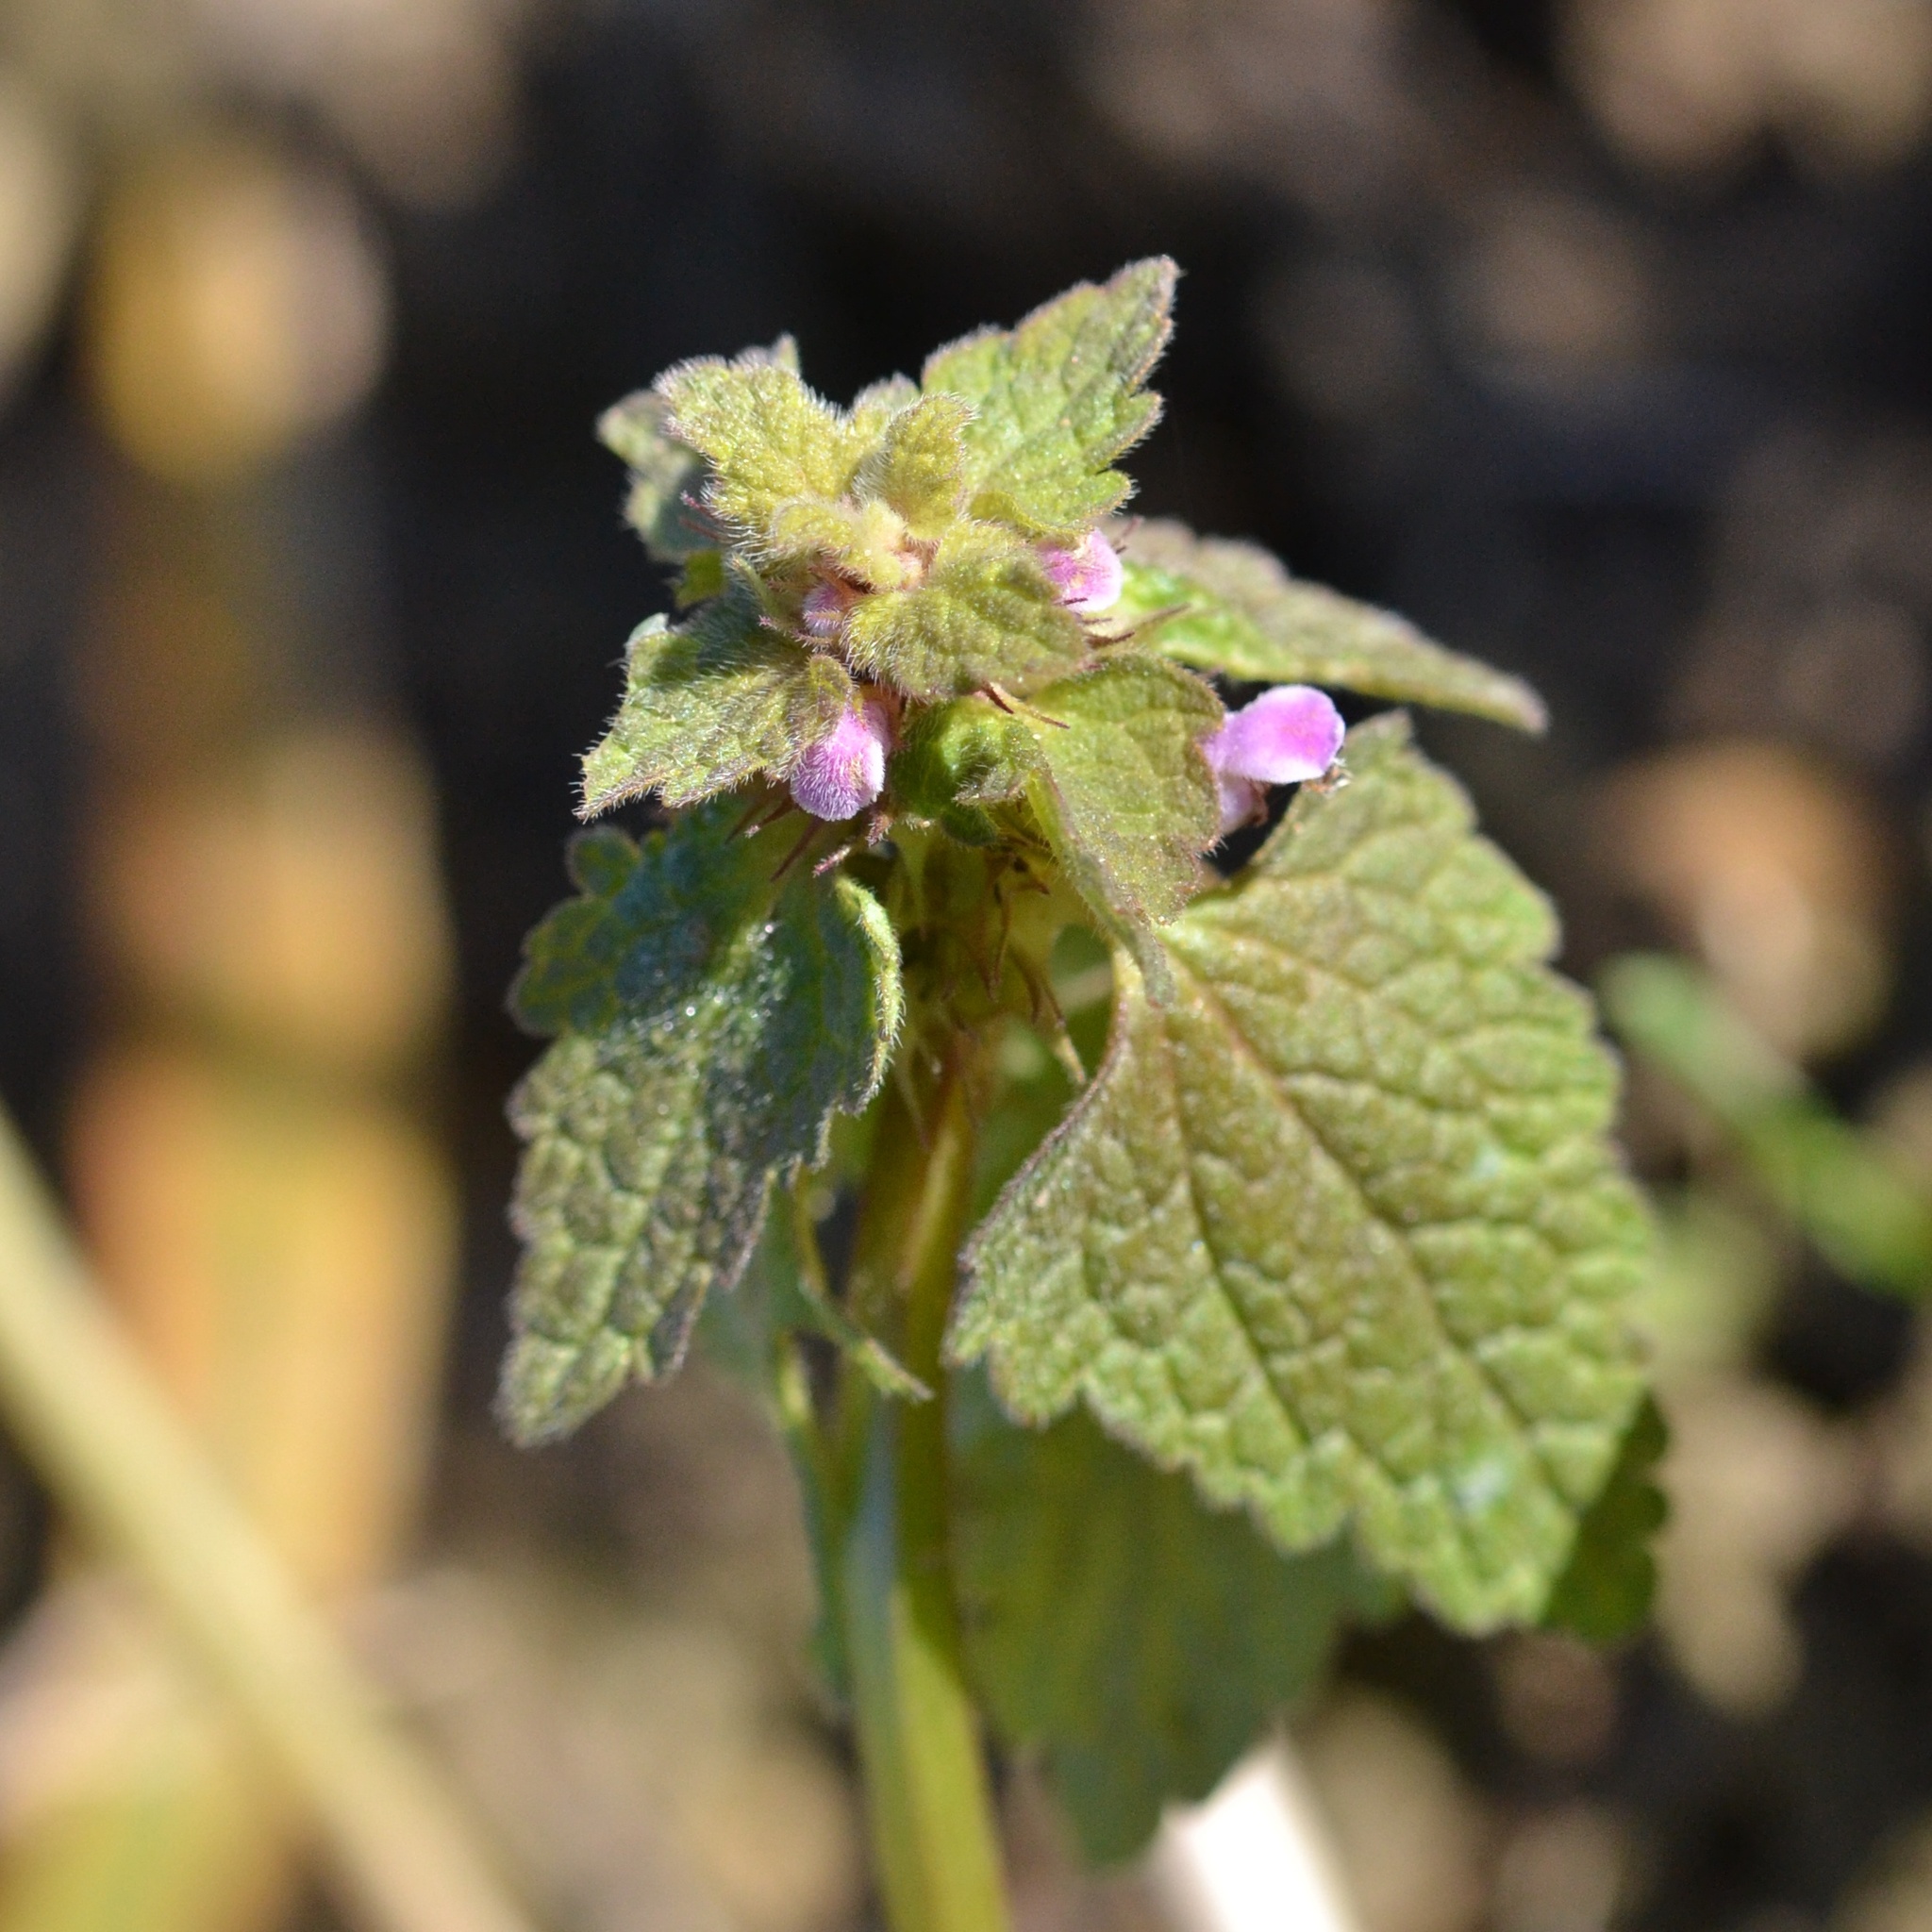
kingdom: Plantae
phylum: Tracheophyta
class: Magnoliopsida
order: Lamiales
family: Lamiaceae
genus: Lamium
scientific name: Lamium purpureum
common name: Red dead-nettle
